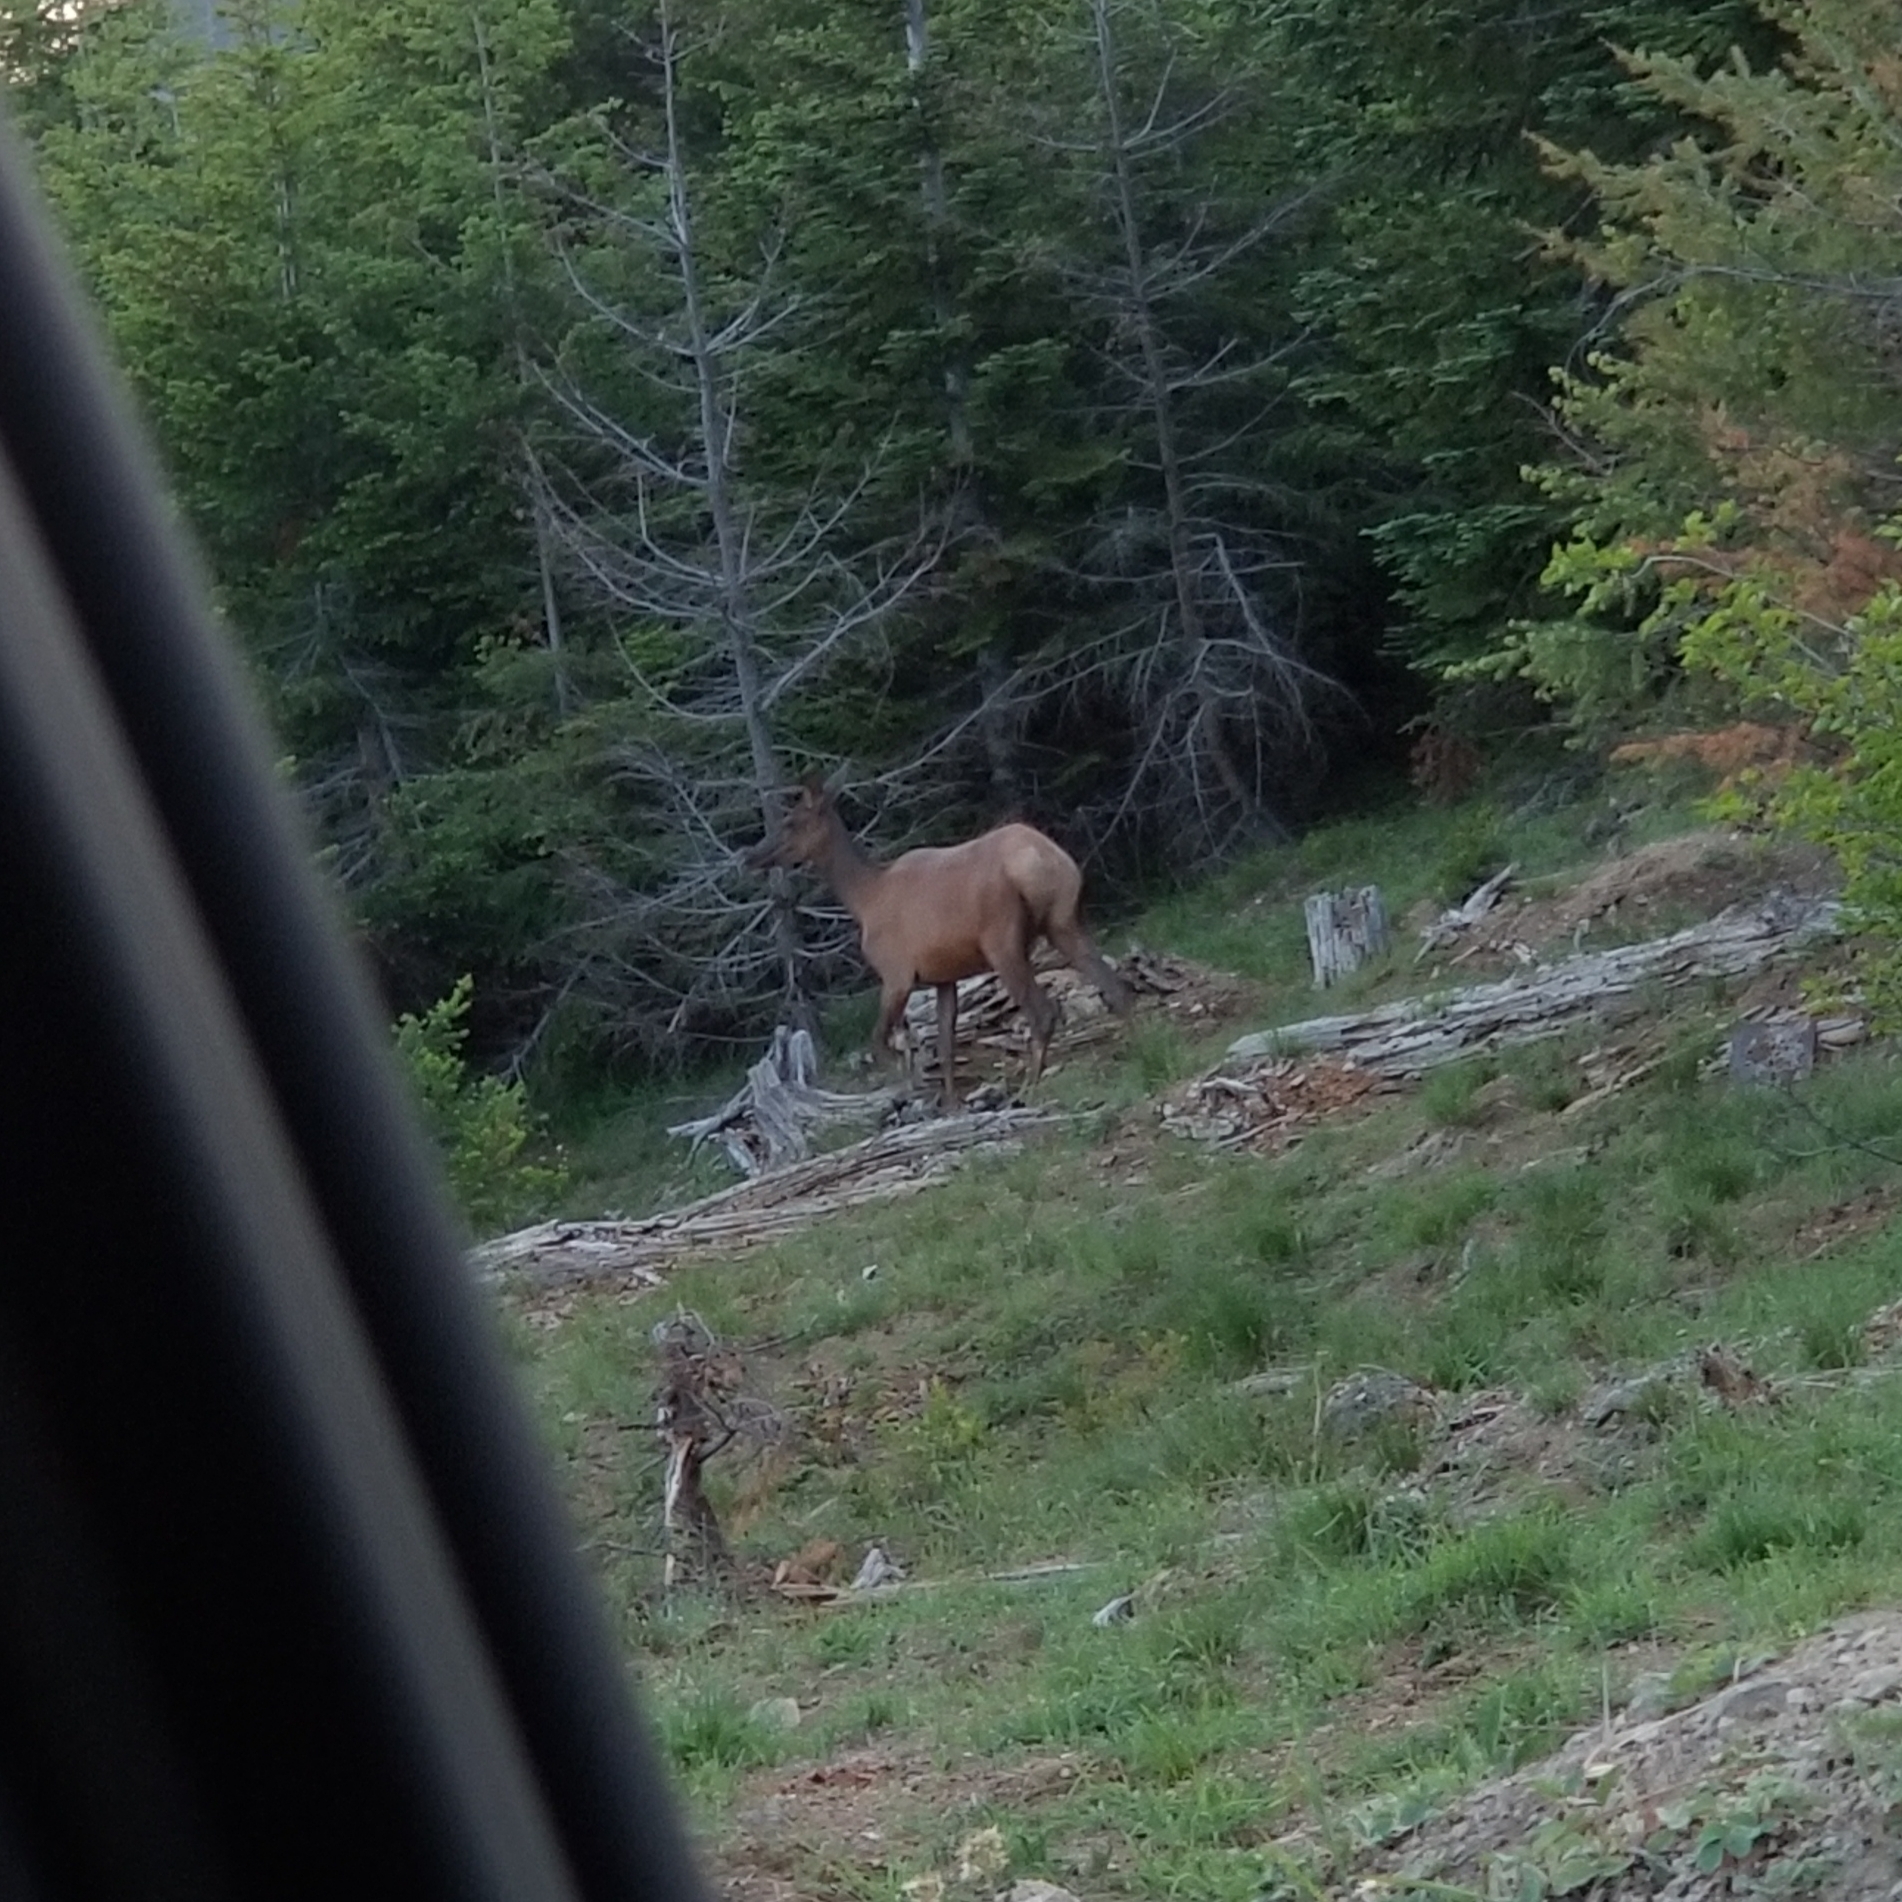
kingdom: Animalia
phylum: Chordata
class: Mammalia
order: Artiodactyla
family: Cervidae
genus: Cervus
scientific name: Cervus elaphus
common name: Red deer
